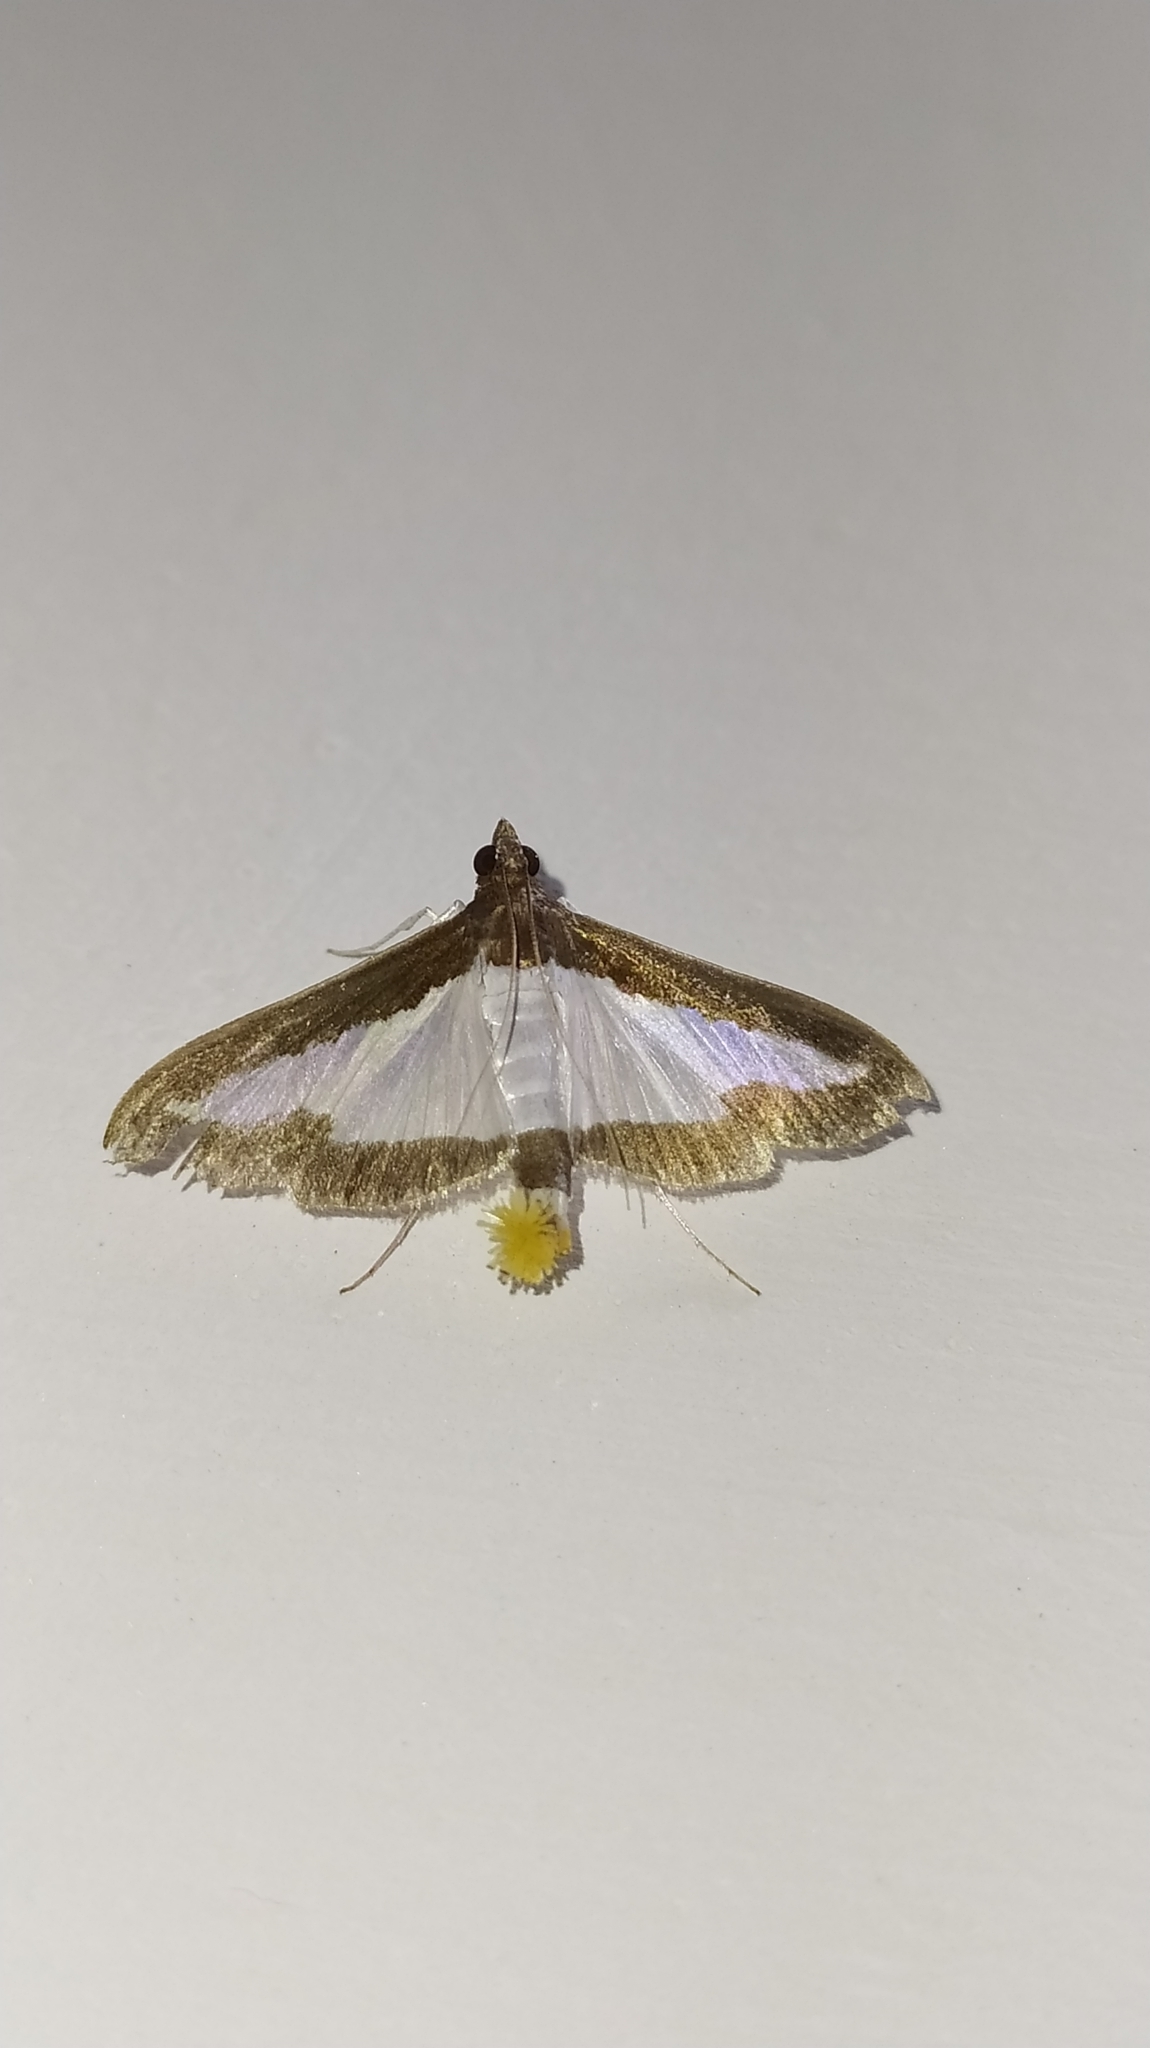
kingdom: Animalia
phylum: Arthropoda
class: Insecta
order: Lepidoptera
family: Crambidae
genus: Diaphania
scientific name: Diaphania indica
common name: Cucumber moth
